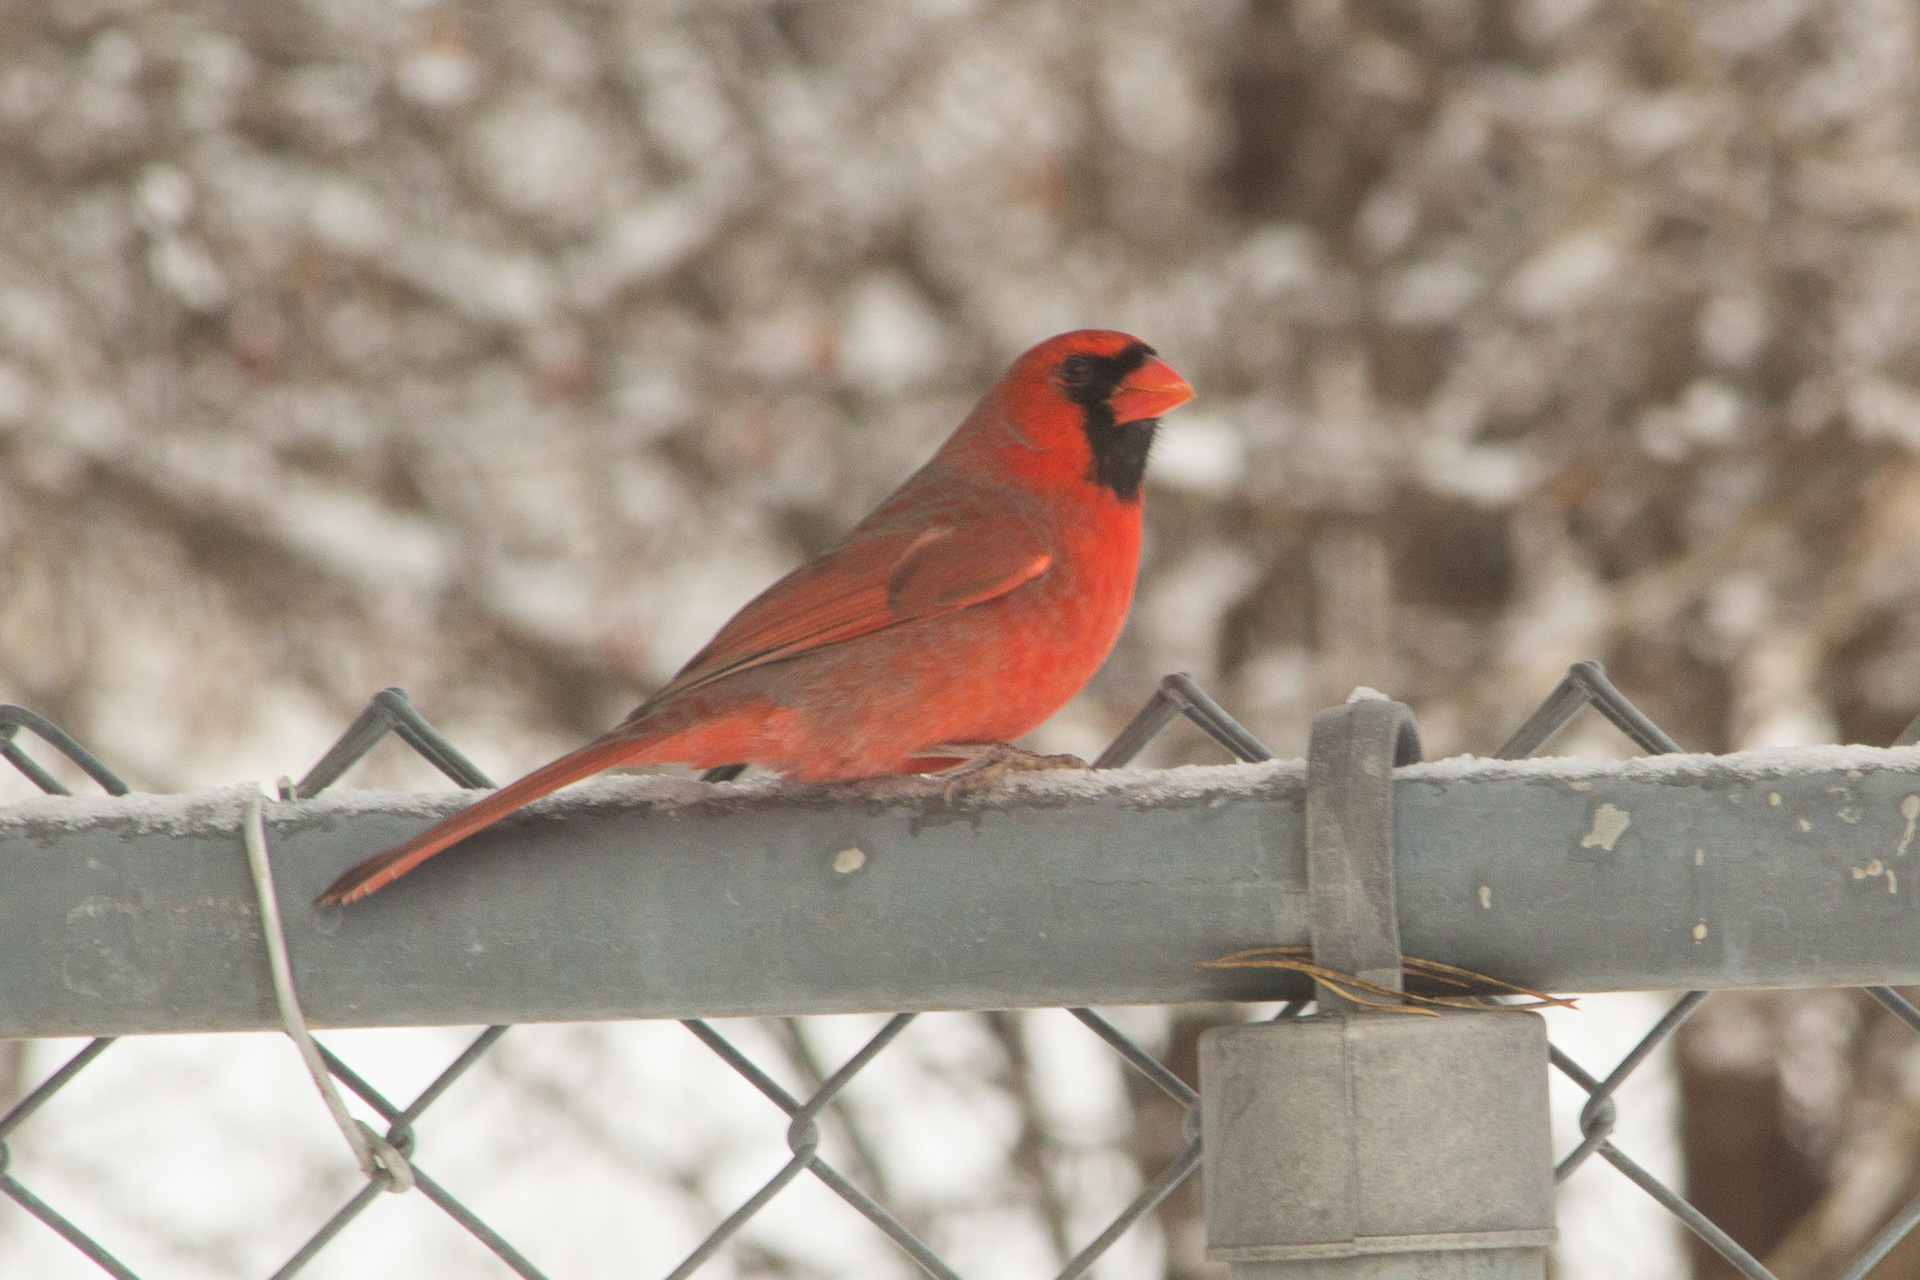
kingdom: Animalia
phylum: Chordata
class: Aves
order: Passeriformes
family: Cardinalidae
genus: Cardinalis
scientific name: Cardinalis cardinalis
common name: Northern cardinal
